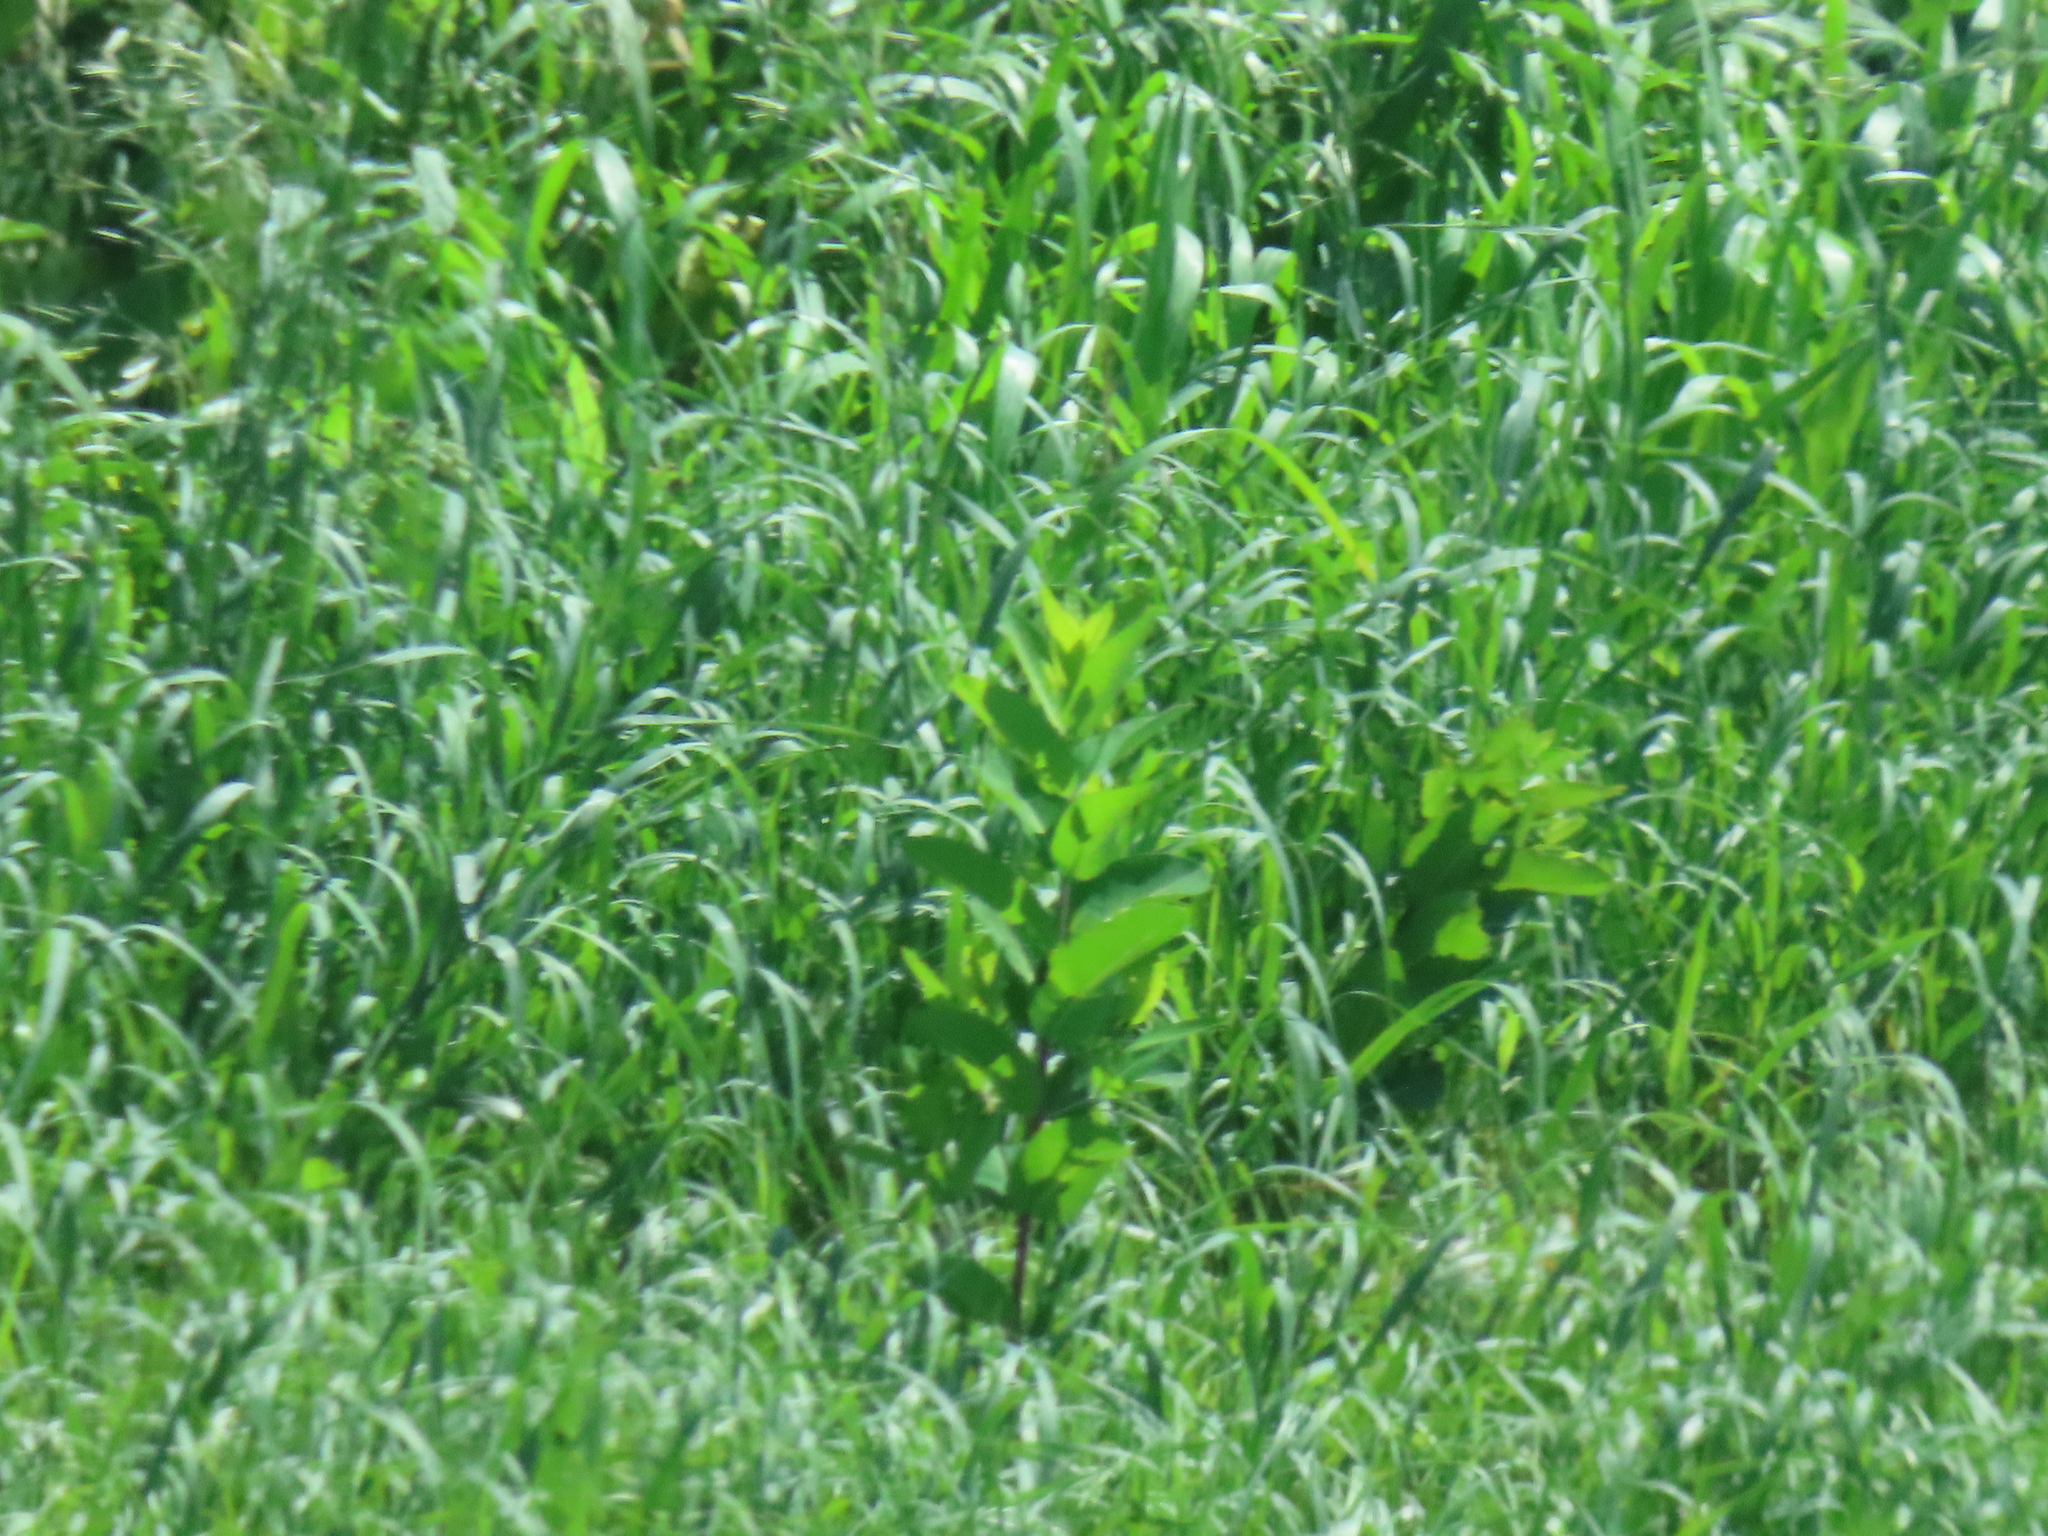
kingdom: Plantae
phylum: Tracheophyta
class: Magnoliopsida
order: Gentianales
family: Apocynaceae
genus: Asclepias
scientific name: Asclepias syriaca
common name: Common milkweed
